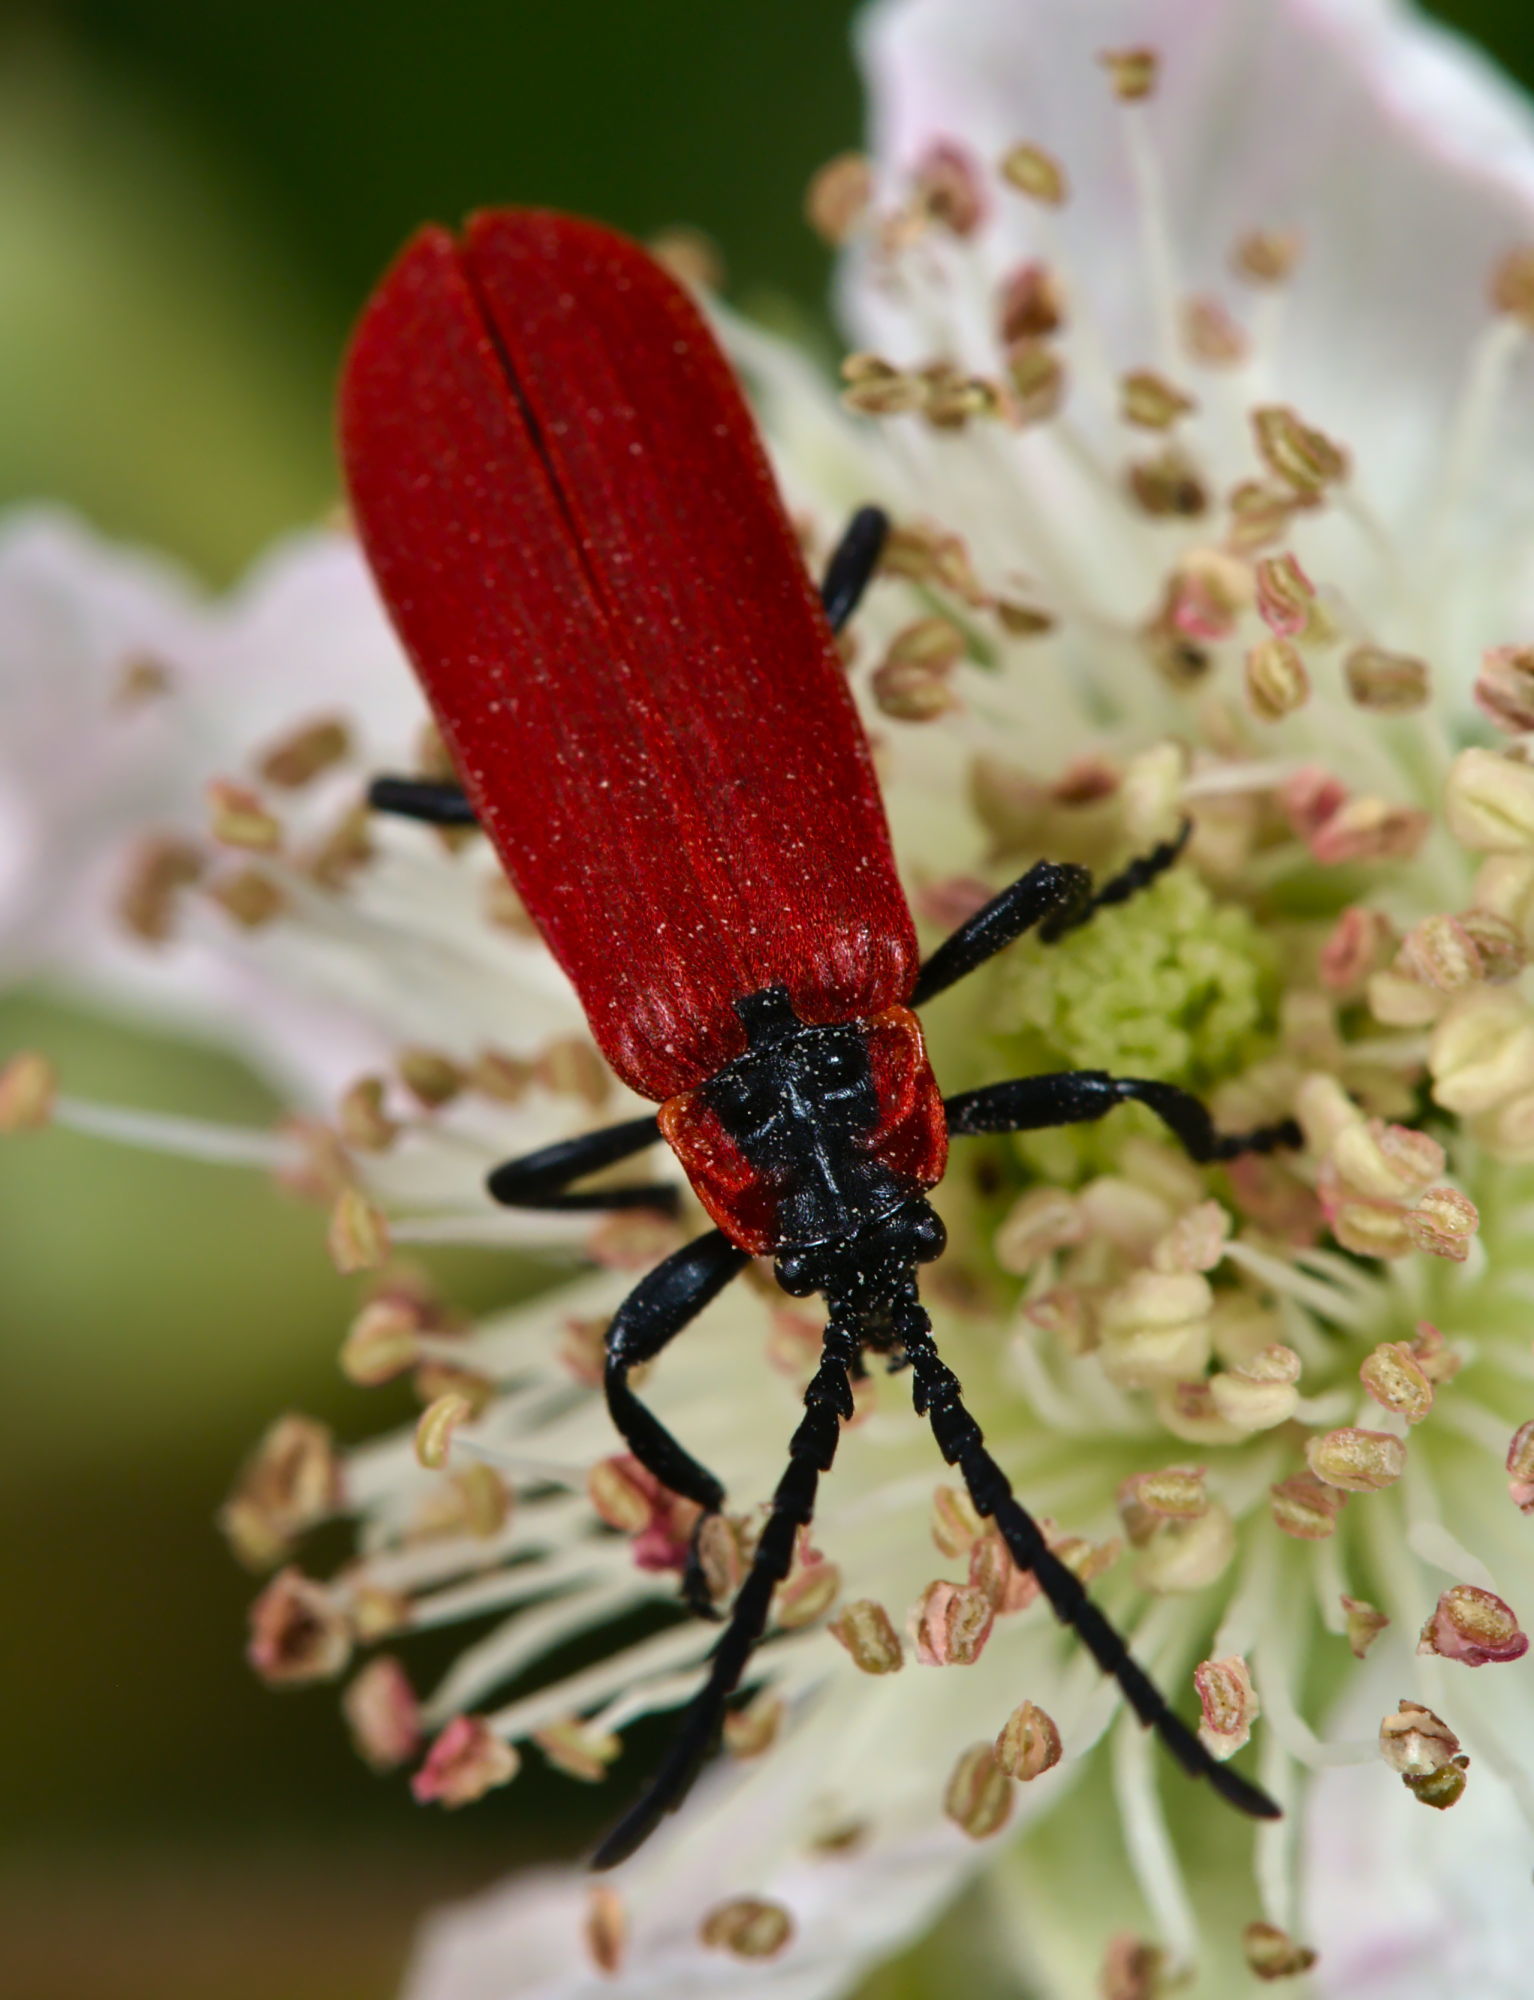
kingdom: Animalia
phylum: Arthropoda
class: Insecta
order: Coleoptera
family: Lycidae
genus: Lygistopterus
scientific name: Lygistopterus sanguineus
